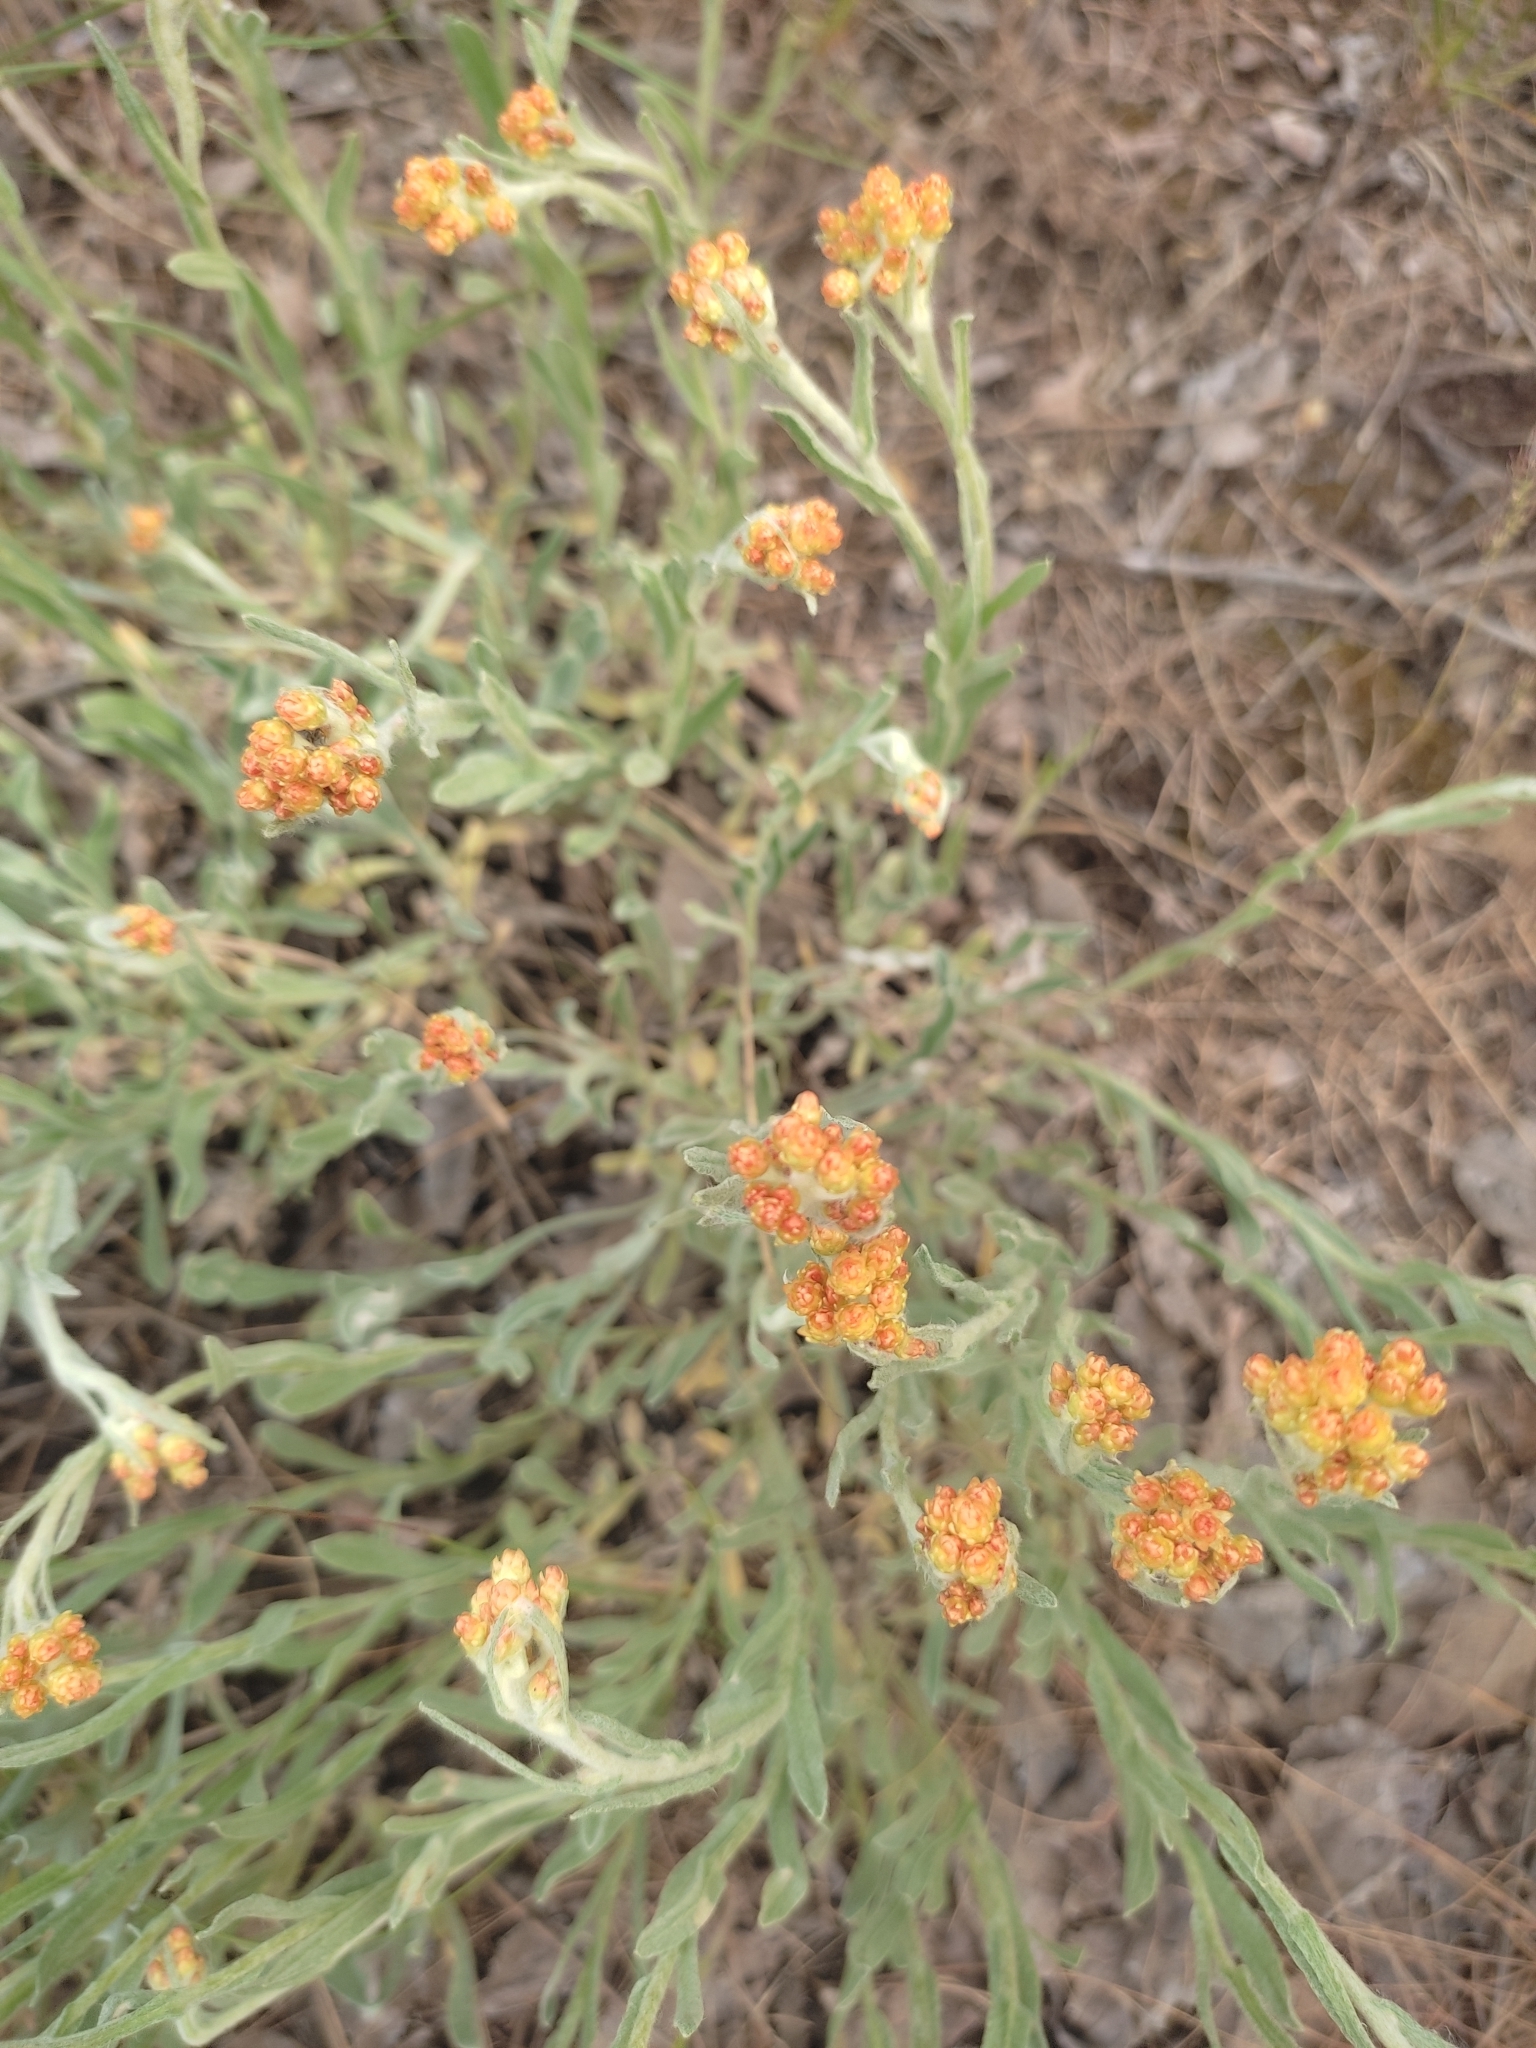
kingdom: Plantae
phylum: Tracheophyta
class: Magnoliopsida
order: Asterales
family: Asteraceae
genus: Helichrysum
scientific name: Helichrysum arenarium
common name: Strawflower
